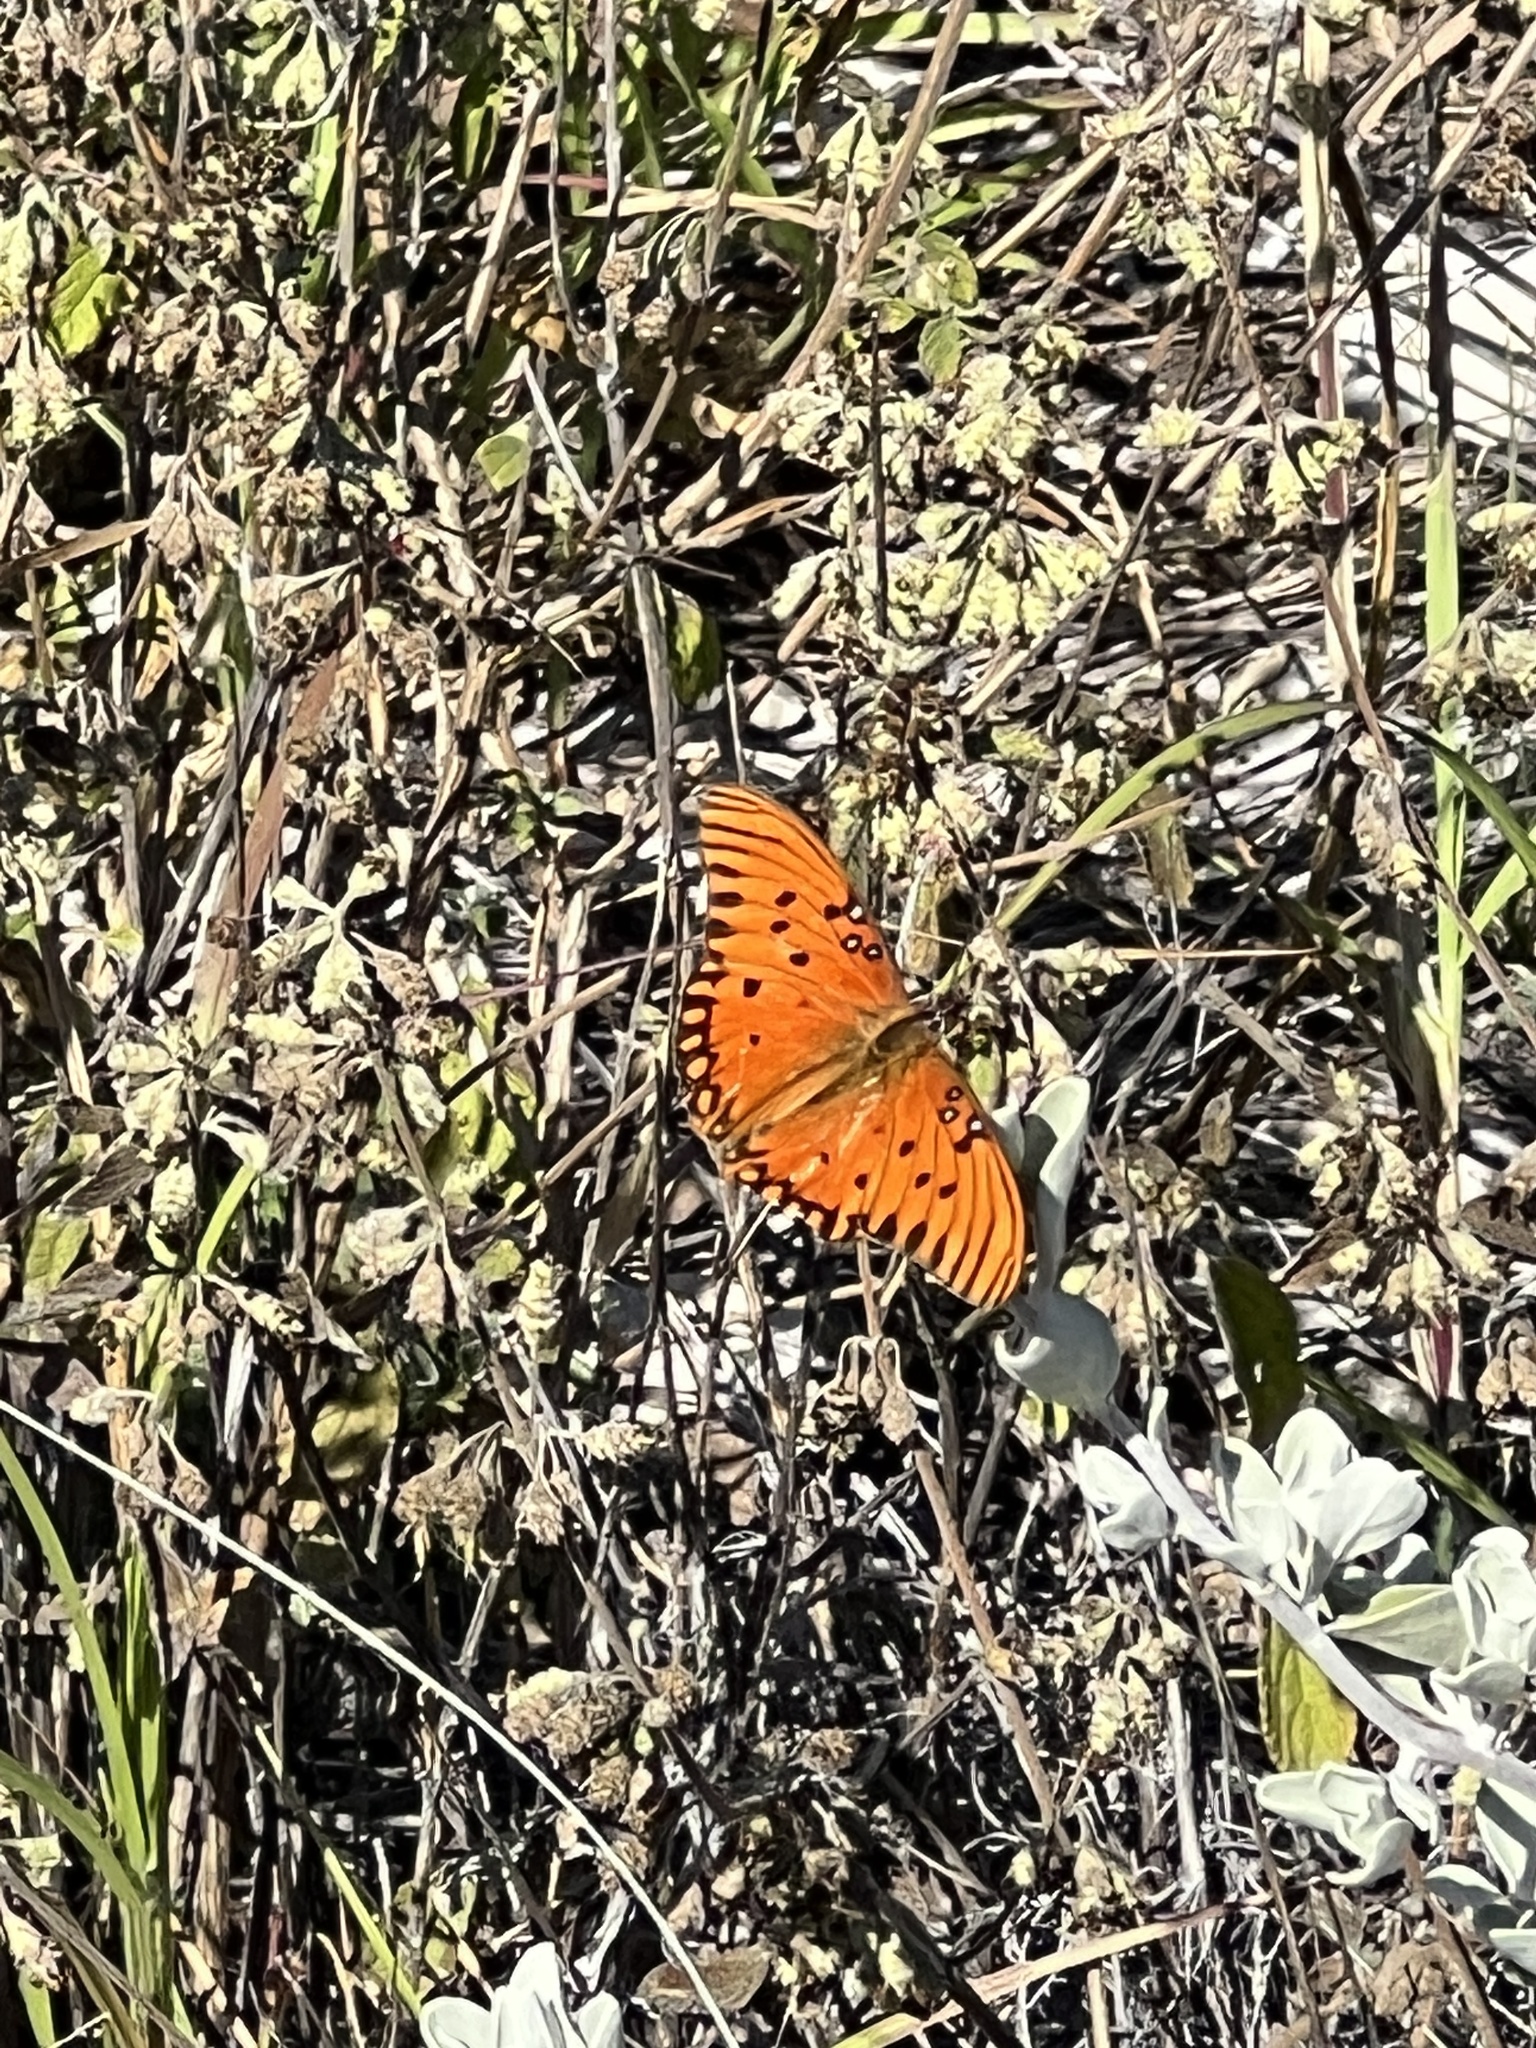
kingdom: Animalia
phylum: Arthropoda
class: Insecta
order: Lepidoptera
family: Nymphalidae
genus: Dione
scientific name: Dione vanillae
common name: Gulf fritillary
